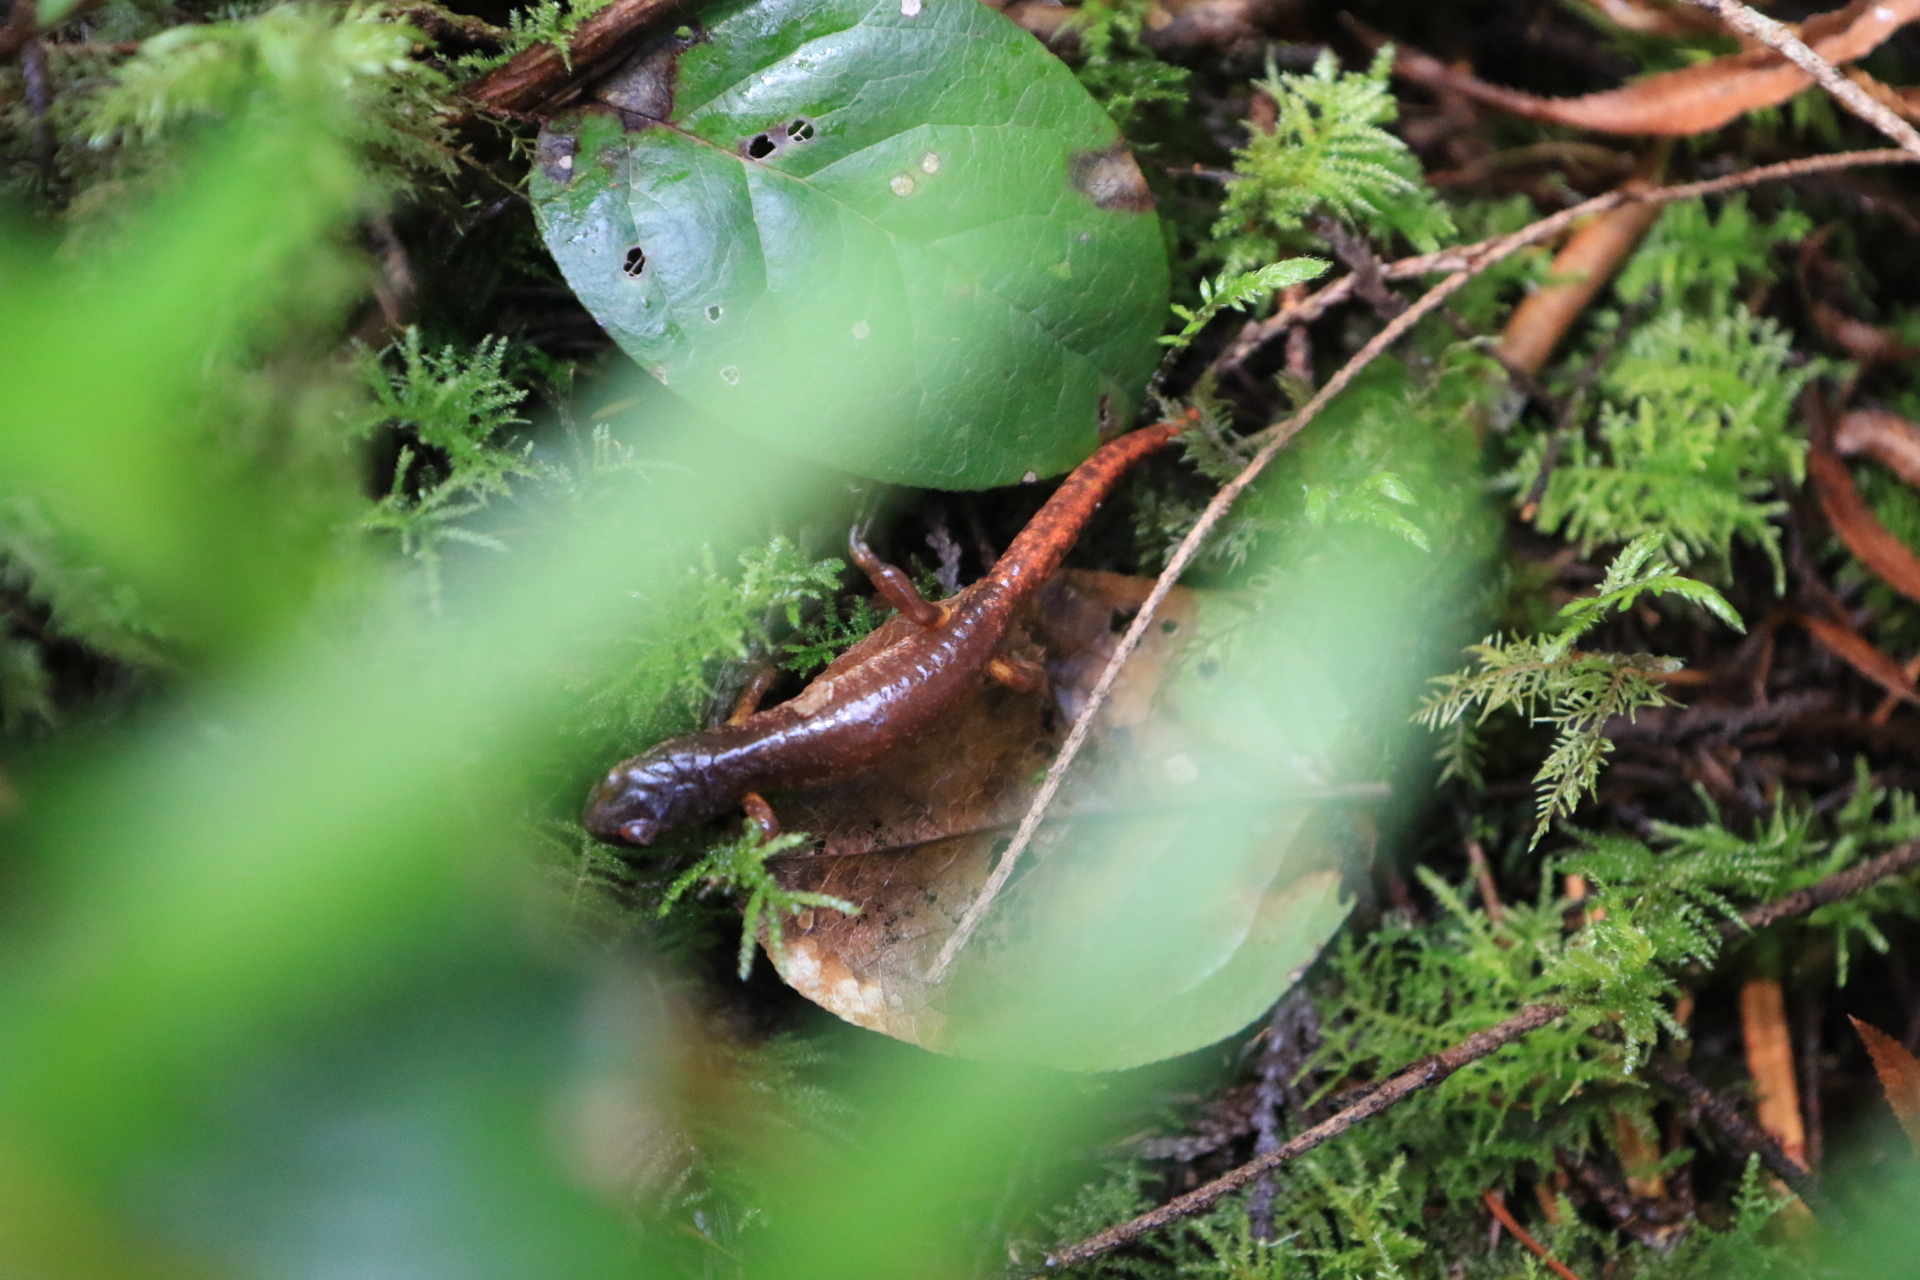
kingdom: Animalia
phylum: Chordata
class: Amphibia
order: Caudata
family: Plethodontidae
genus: Ensatina
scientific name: Ensatina eschscholtzii
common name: Ensatina
